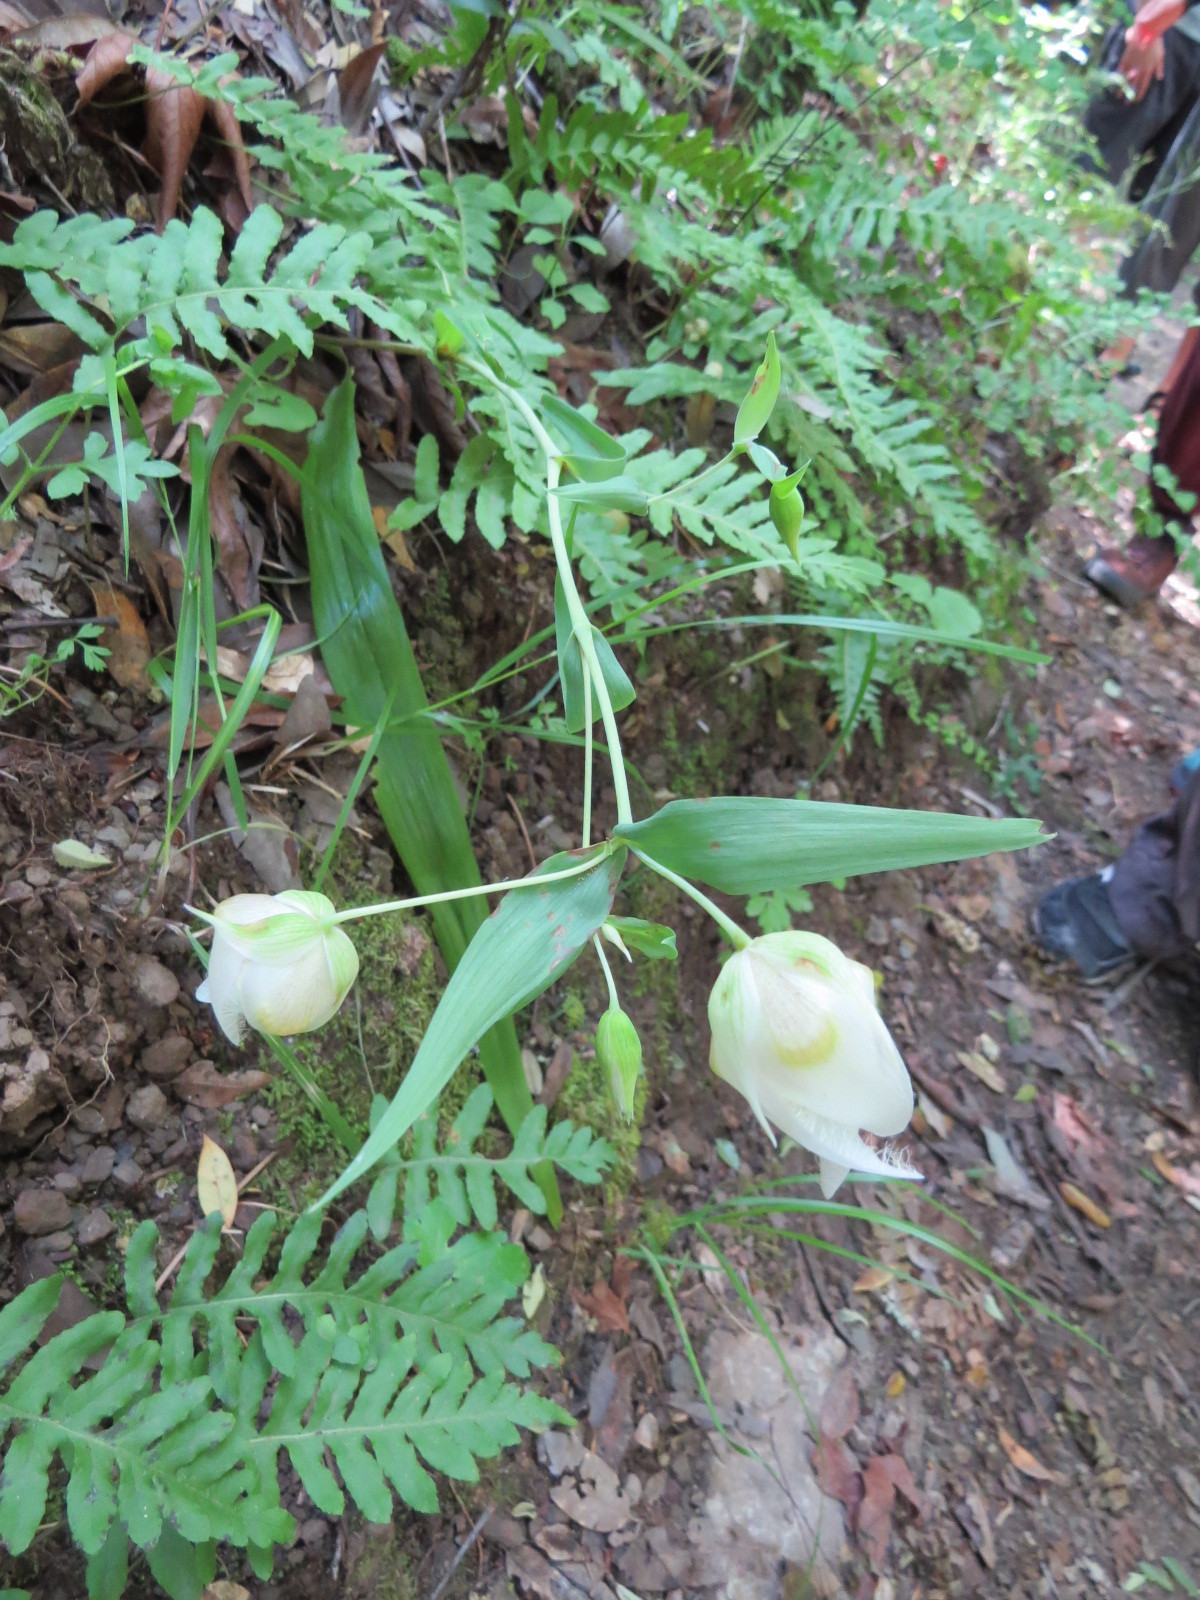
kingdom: Plantae
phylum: Tracheophyta
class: Liliopsida
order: Liliales
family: Liliaceae
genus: Calochortus
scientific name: Calochortus albus
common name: Fairy-lantern
